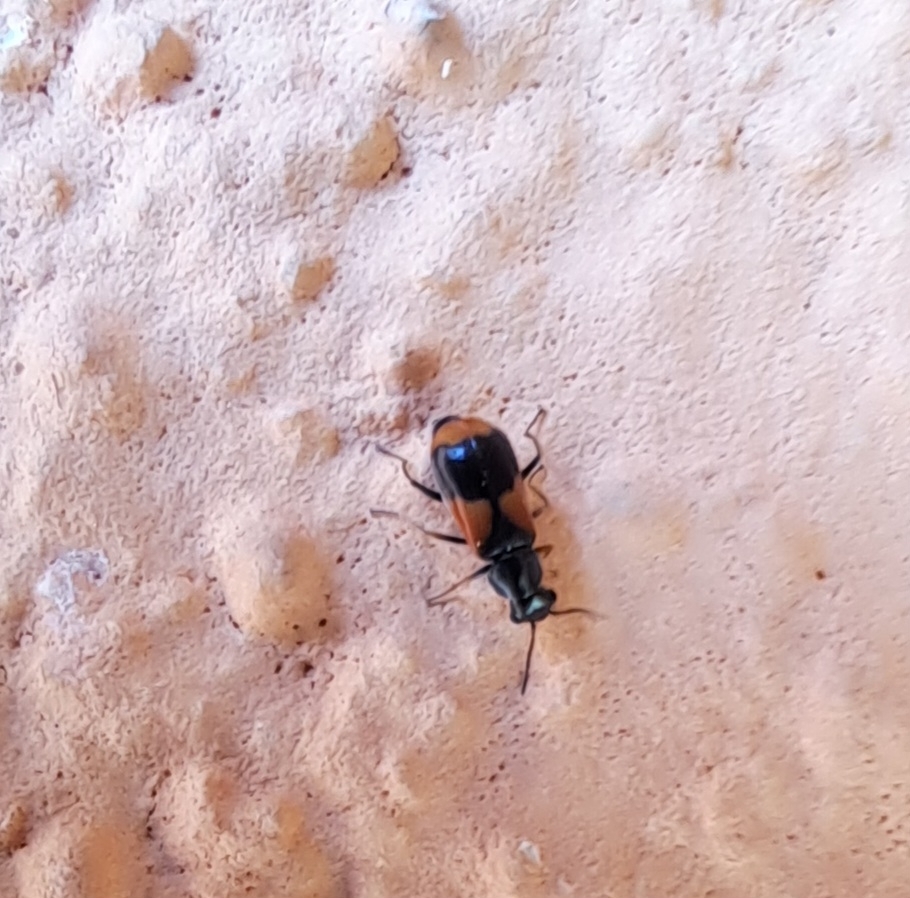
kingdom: Animalia
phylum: Arthropoda
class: Insecta
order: Coleoptera
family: Melyridae
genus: Anthocomus
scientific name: Anthocomus equestris
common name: Black-banded soft-winged flower beetle
